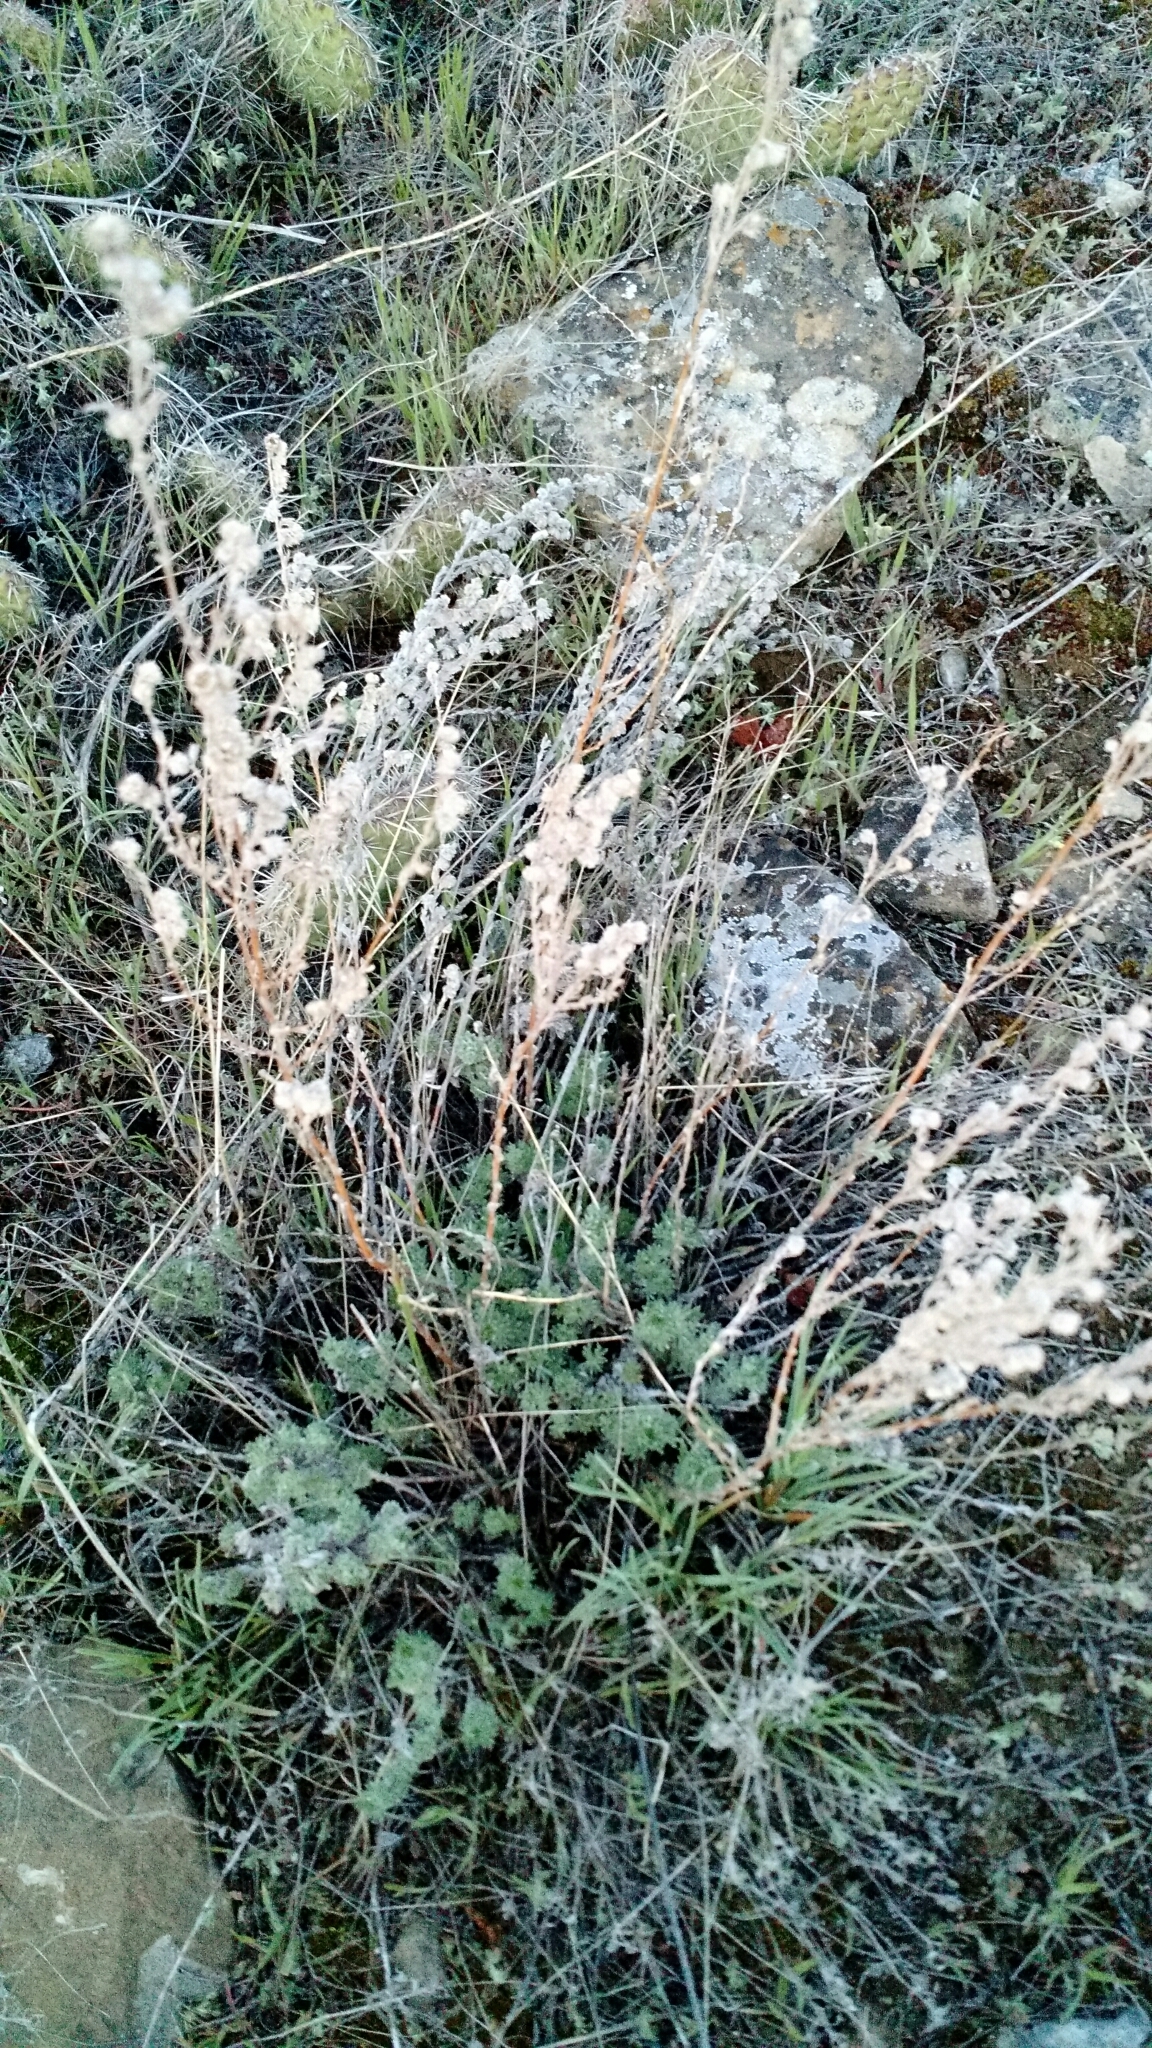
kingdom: Plantae
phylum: Tracheophyta
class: Magnoliopsida
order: Asterales
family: Asteraceae
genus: Artemisia
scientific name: Artemisia frigida
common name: Prairie sagewort
